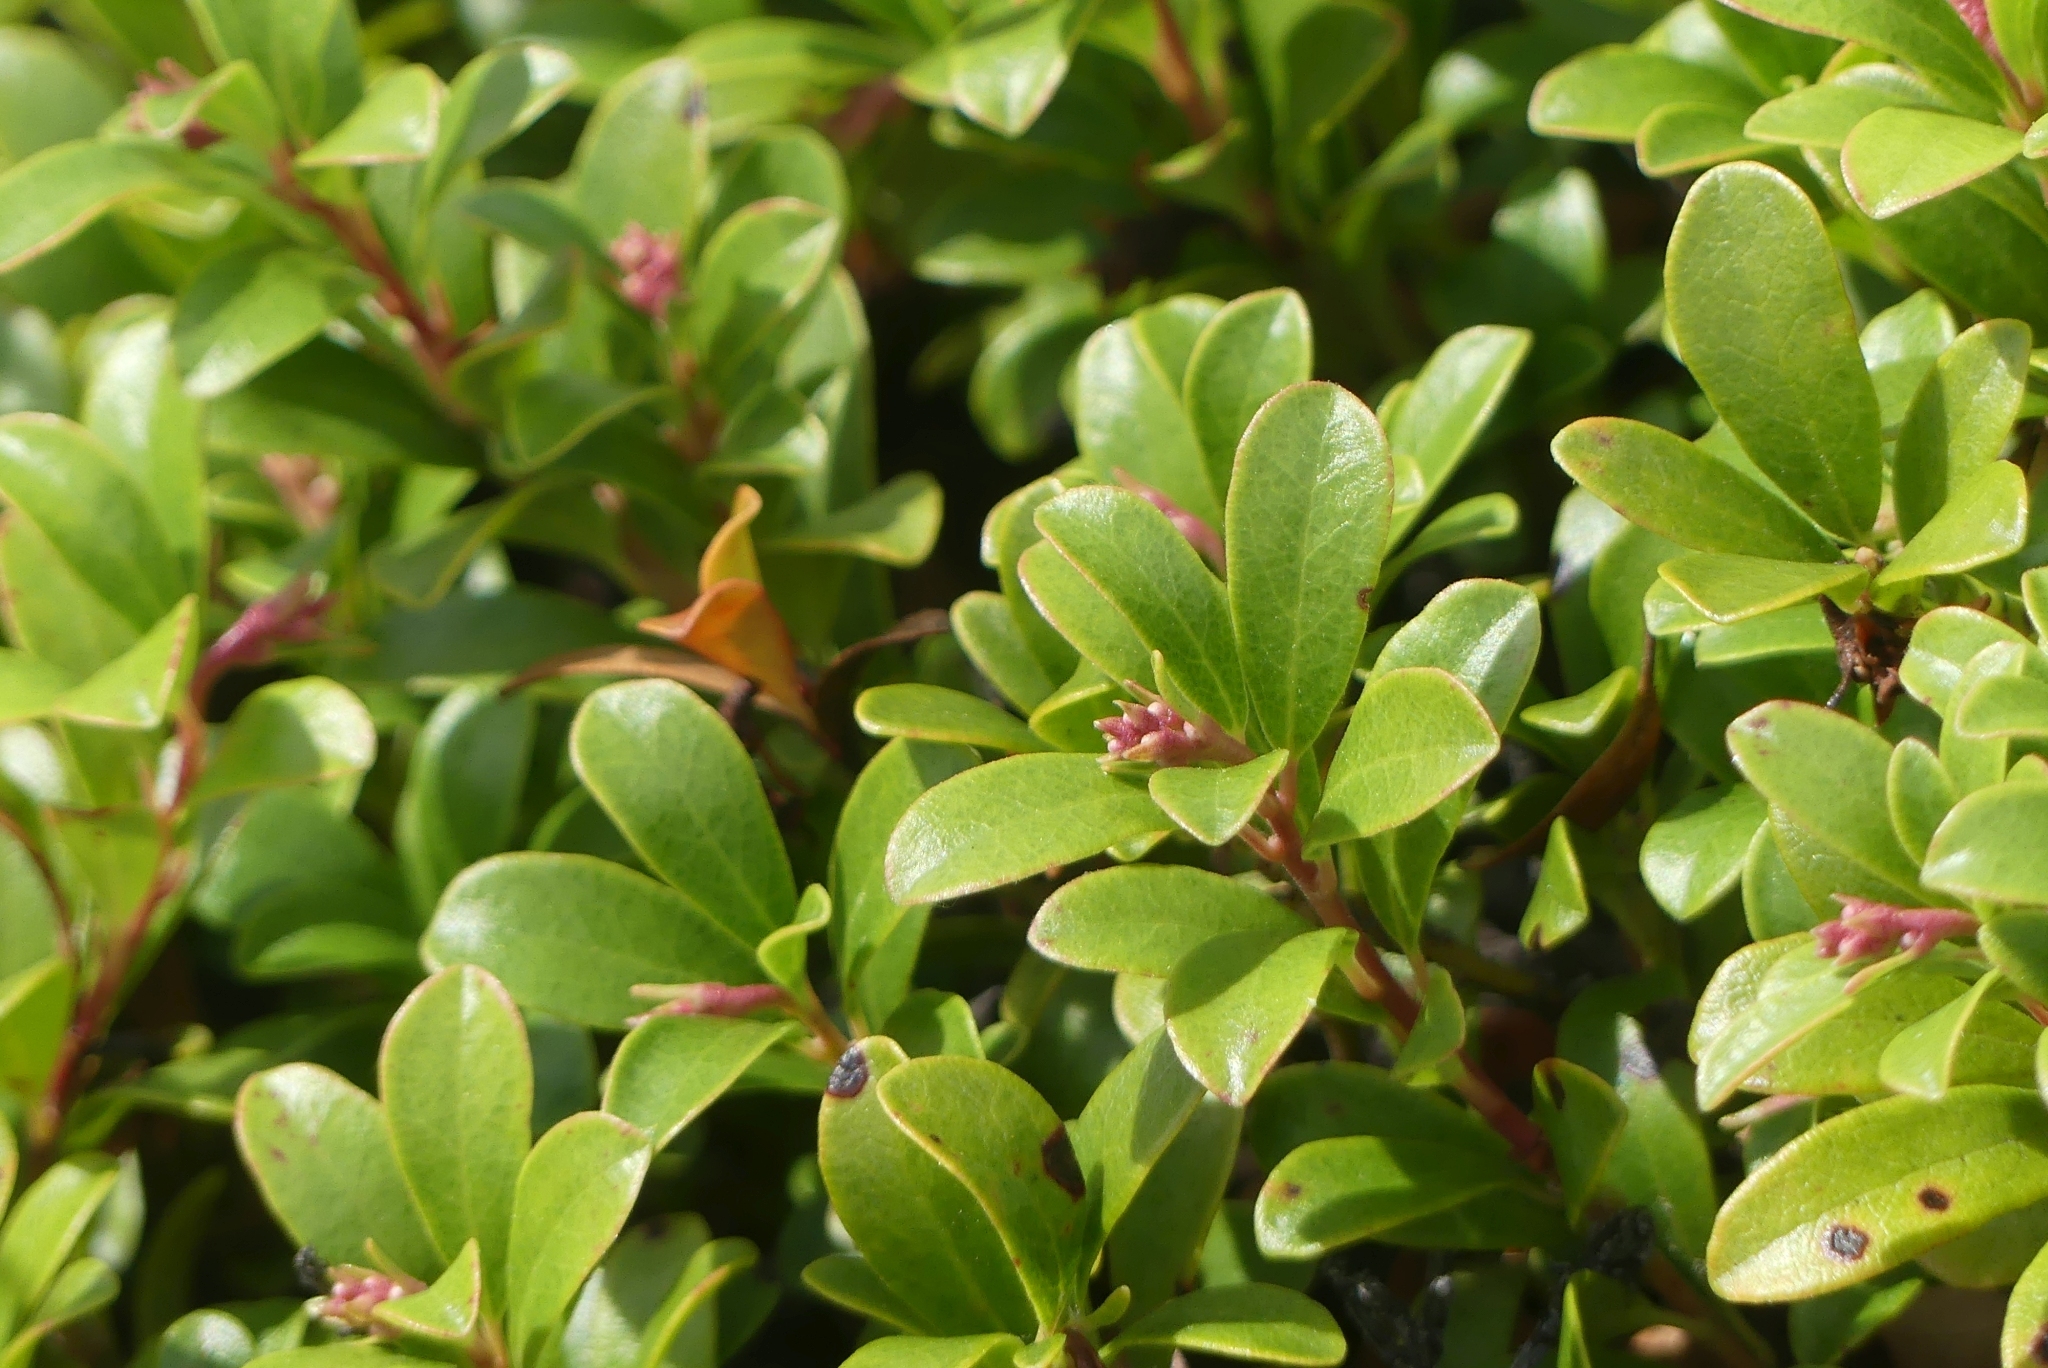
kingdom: Plantae
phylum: Tracheophyta
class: Magnoliopsida
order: Ericales
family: Ericaceae
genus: Arctostaphylos
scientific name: Arctostaphylos uva-ursi
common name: Bearberry
